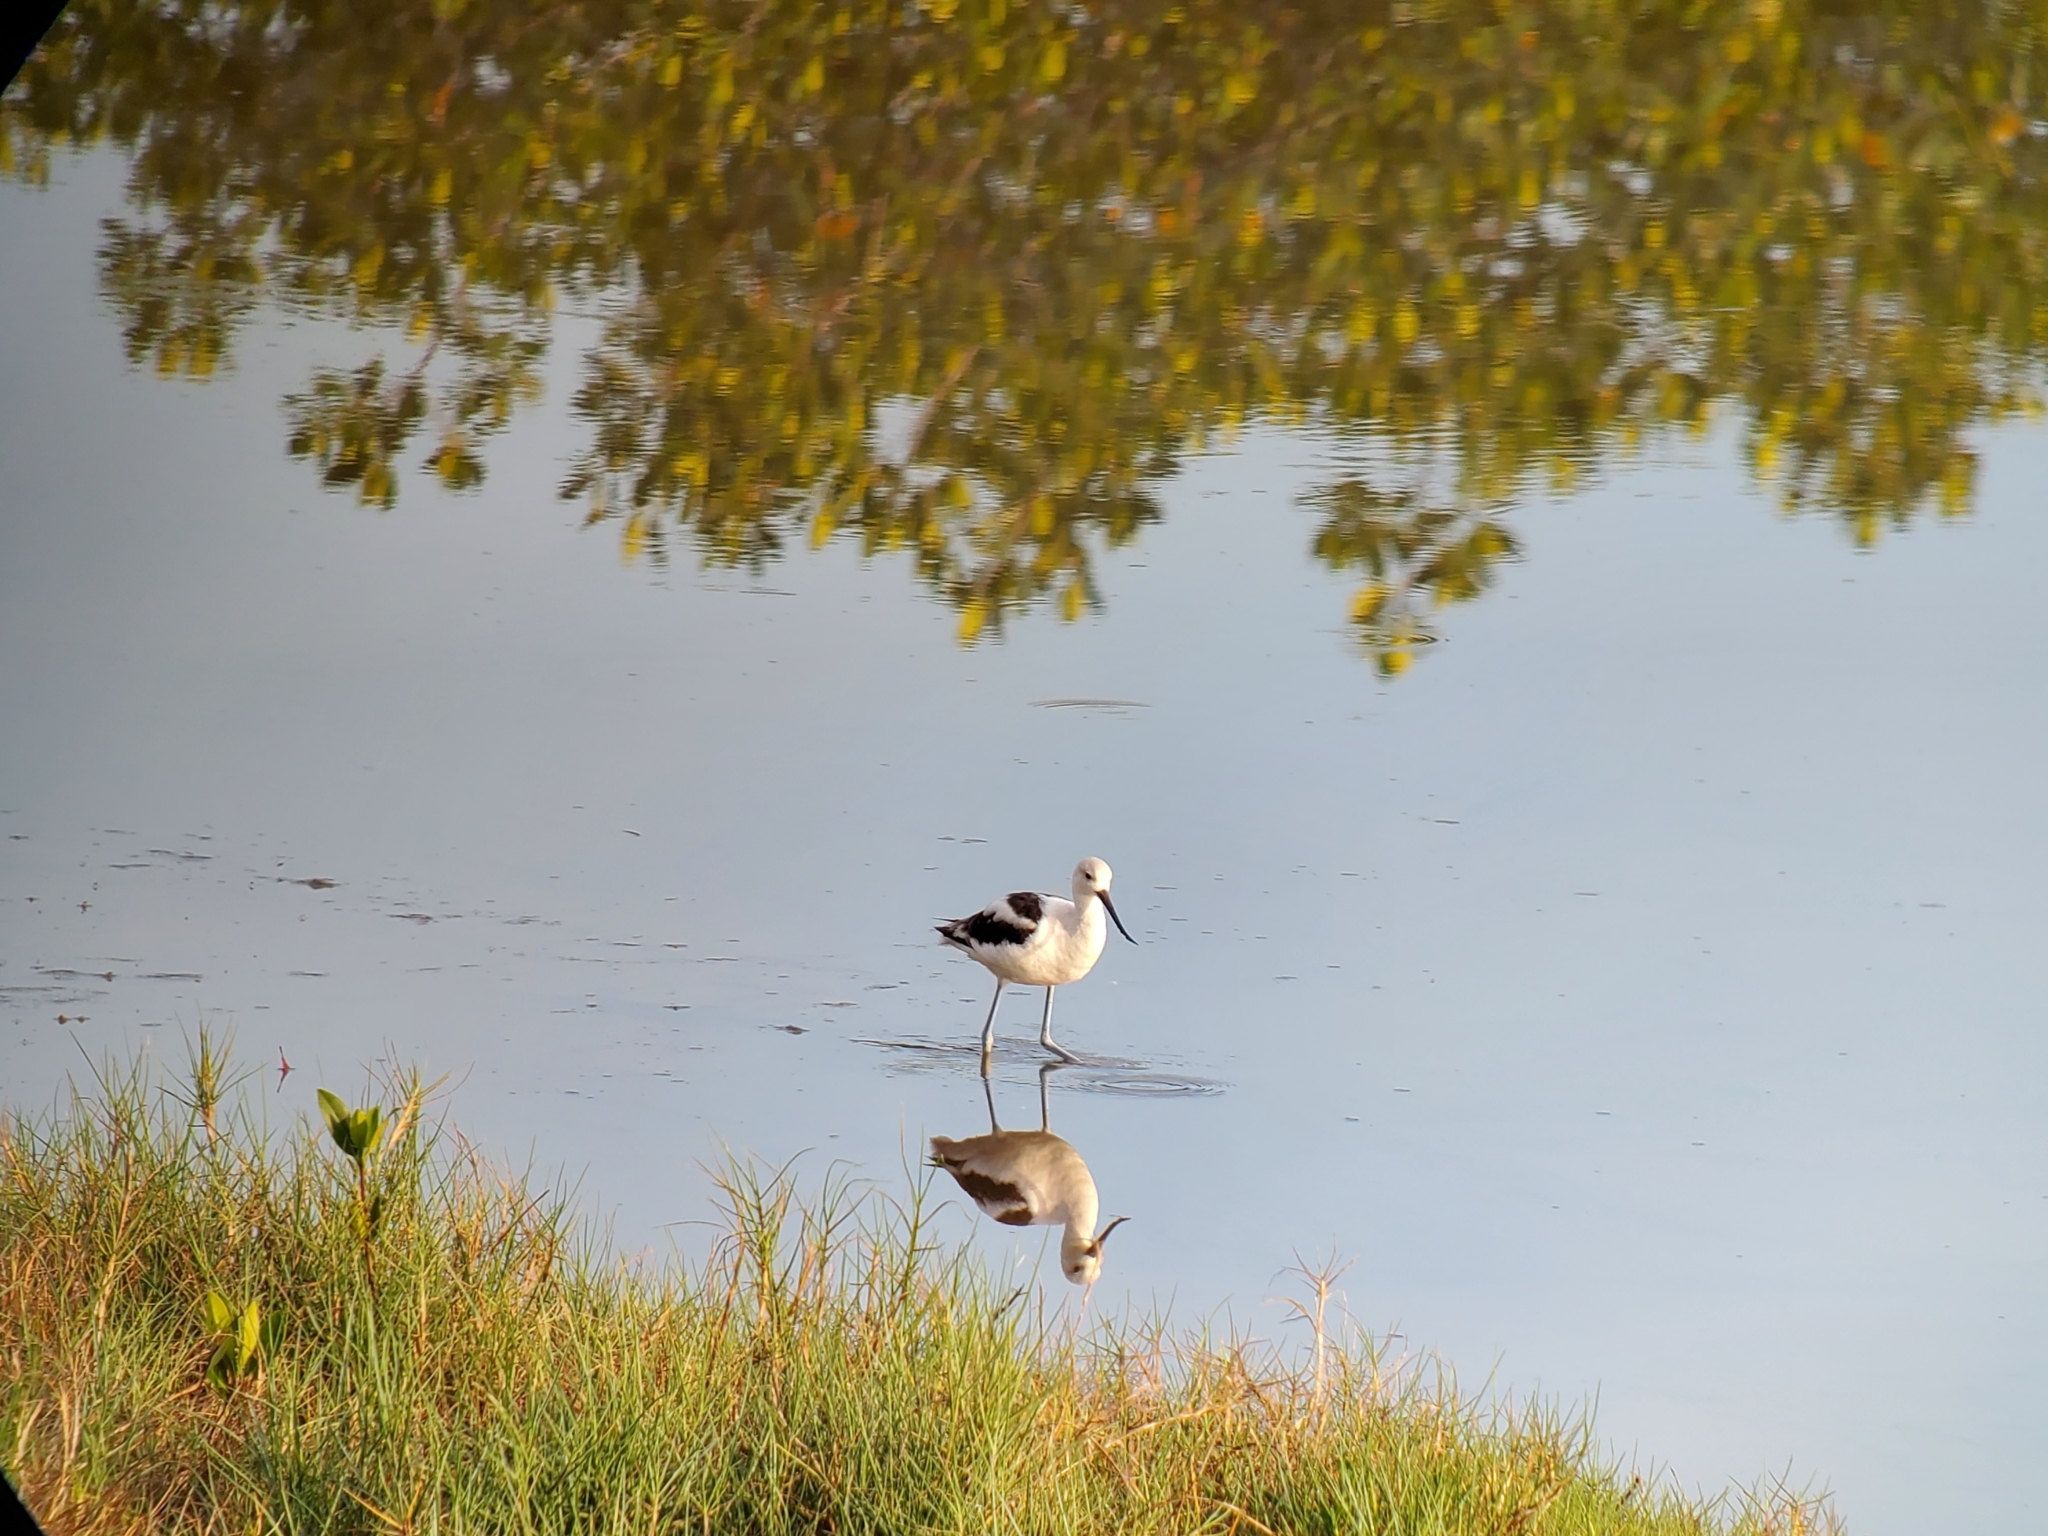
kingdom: Animalia
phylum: Chordata
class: Aves
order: Charadriiformes
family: Recurvirostridae
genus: Recurvirostra
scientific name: Recurvirostra americana
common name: American avocet
